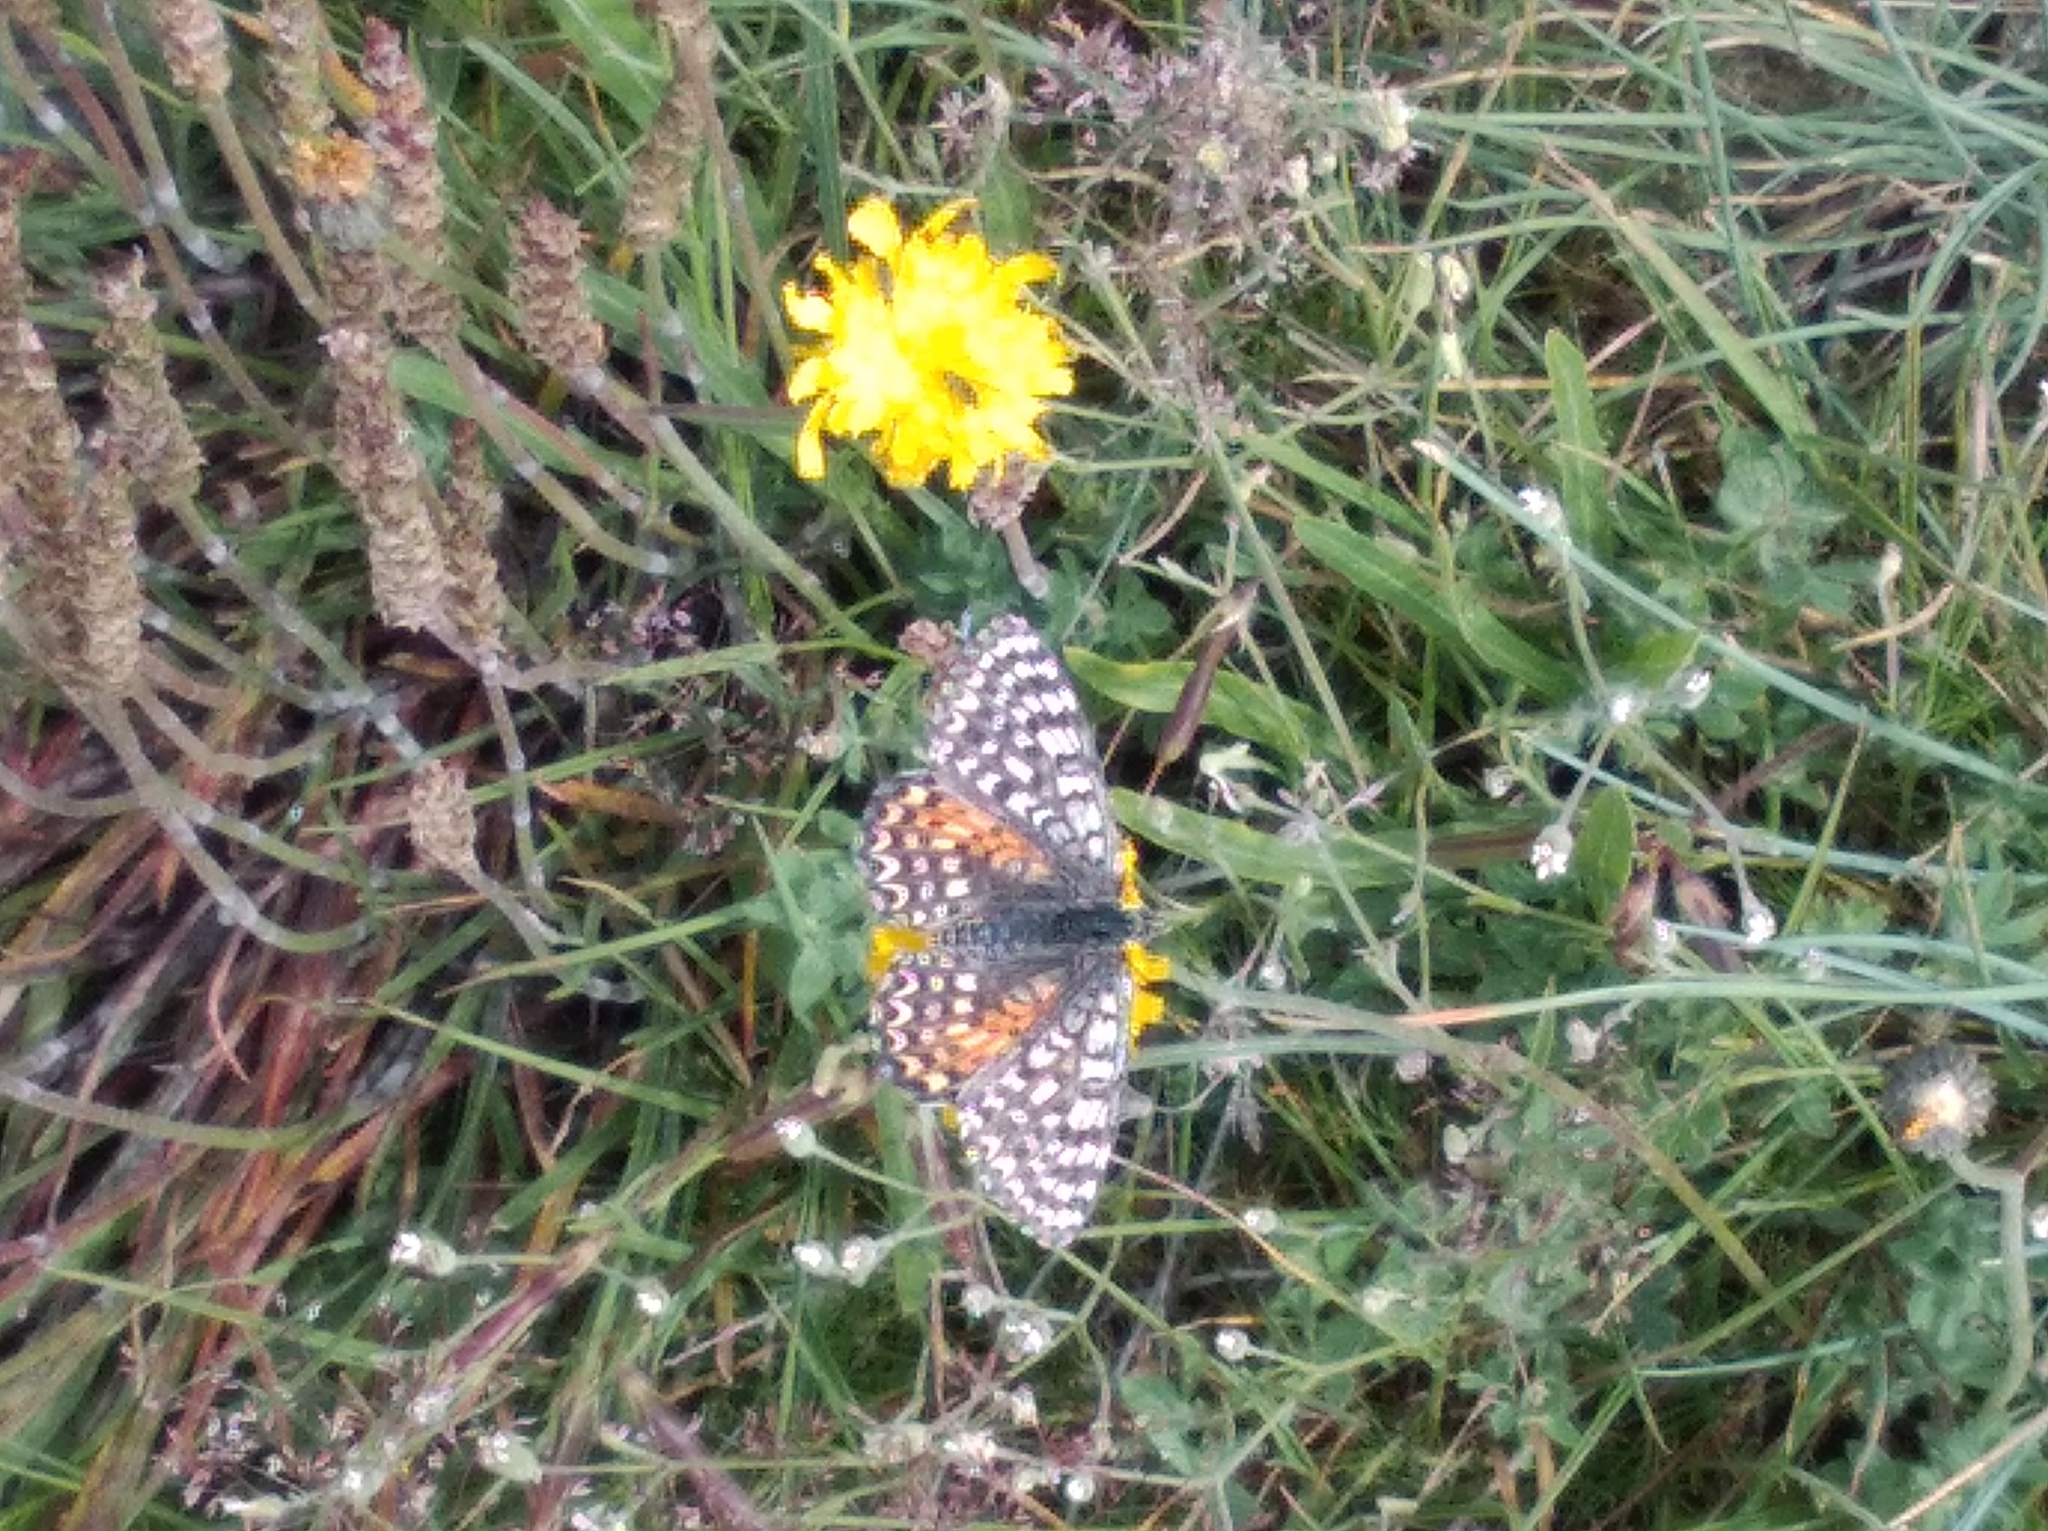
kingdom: Animalia
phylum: Arthropoda
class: Insecta
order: Lepidoptera
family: Nymphalidae
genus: Melitaea
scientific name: Melitaea didyma
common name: Spotted fritillary
